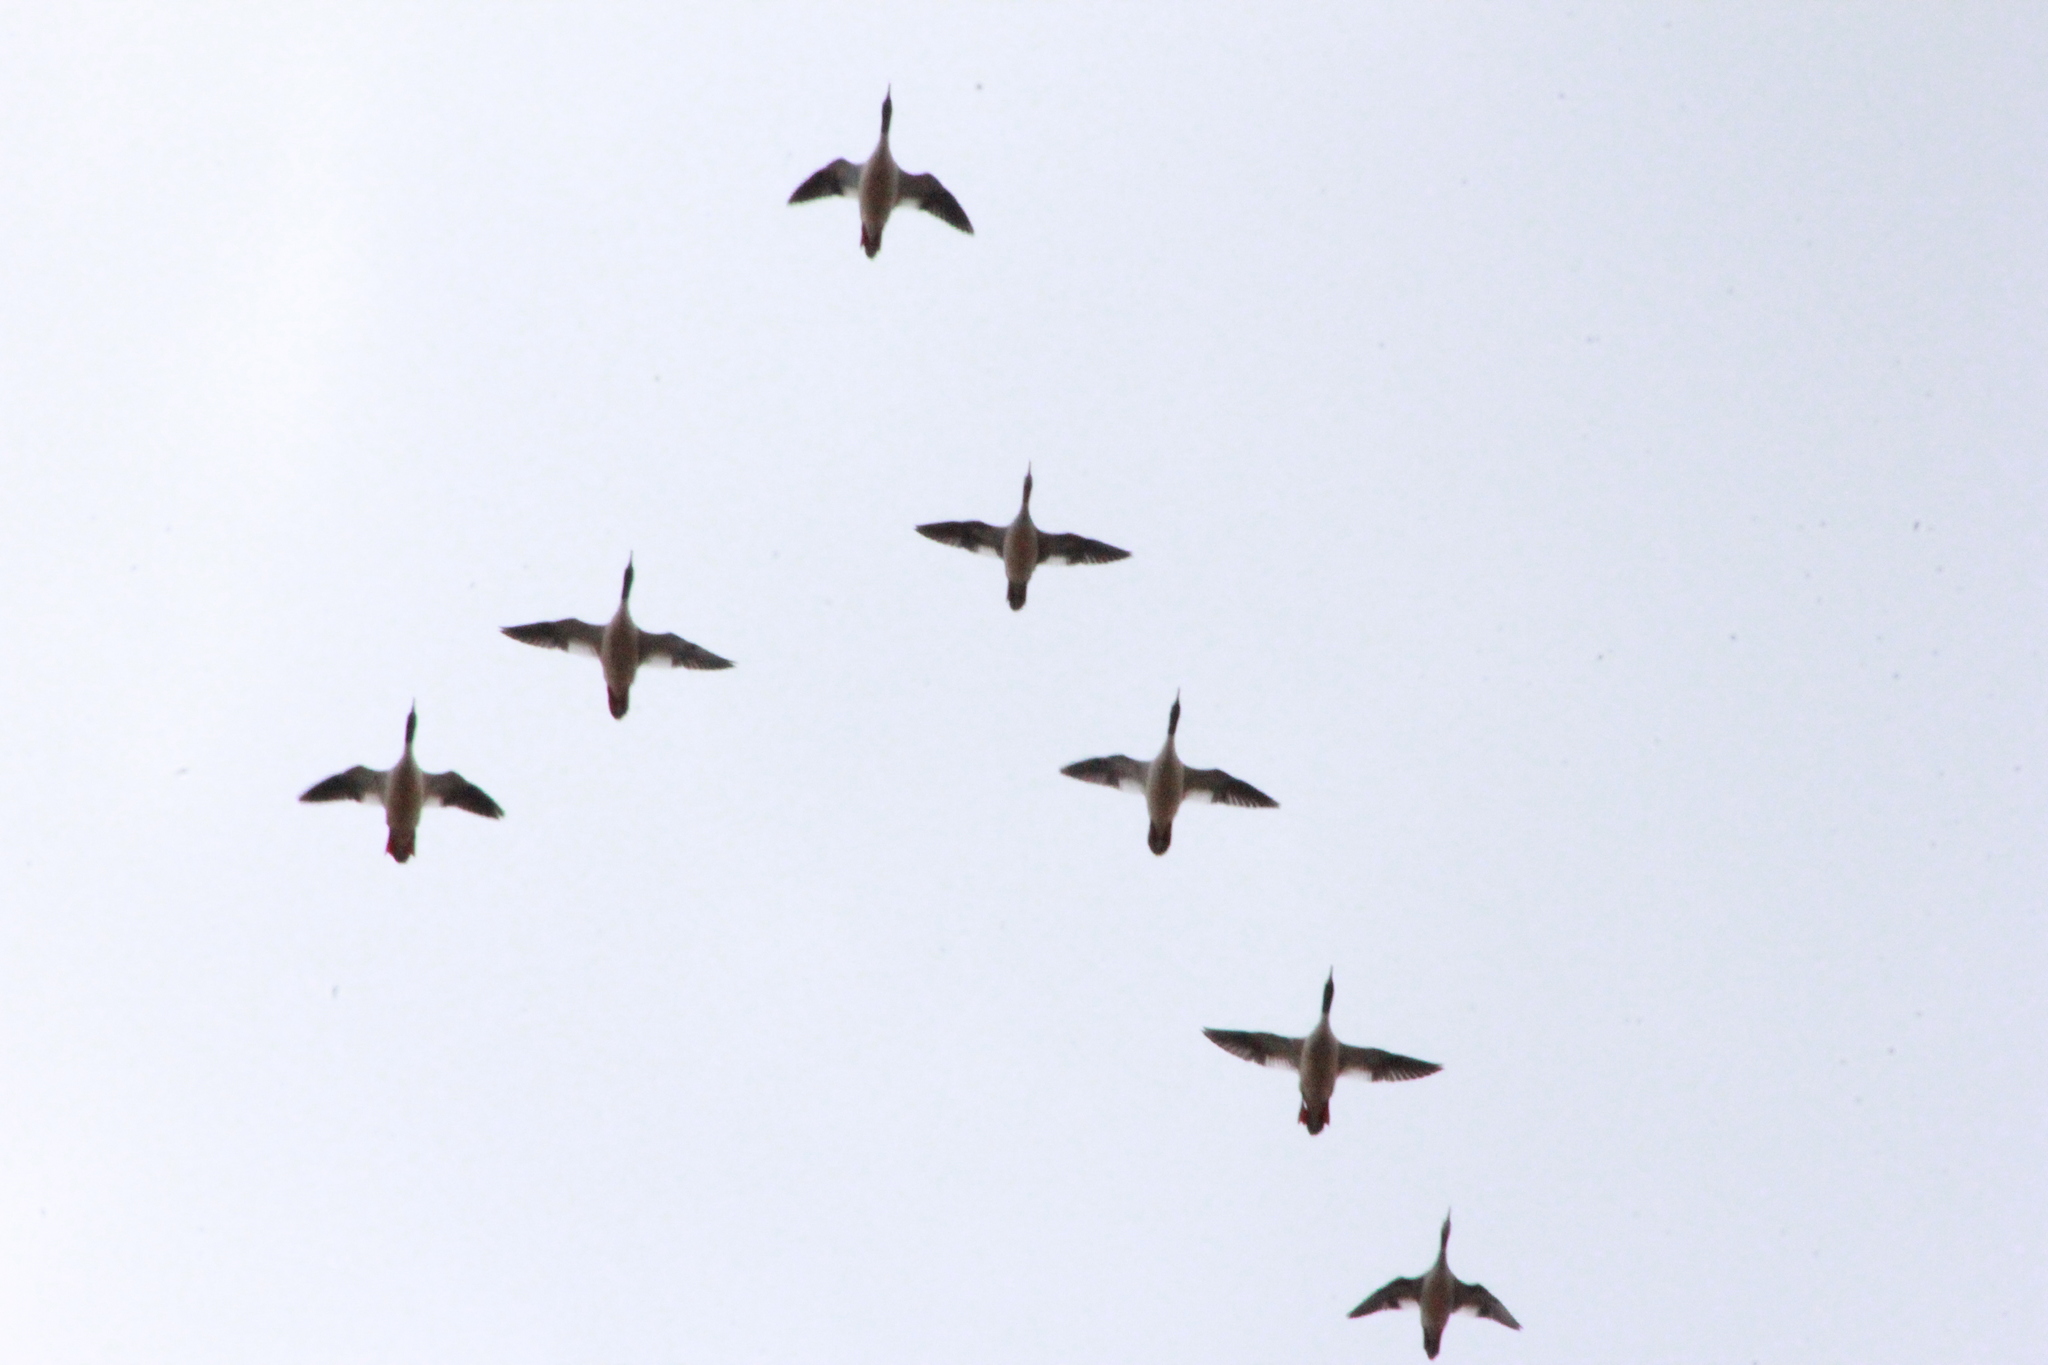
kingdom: Animalia
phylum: Chordata
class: Aves
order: Anseriformes
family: Anatidae
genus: Mergus
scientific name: Mergus merganser
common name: Common merganser
